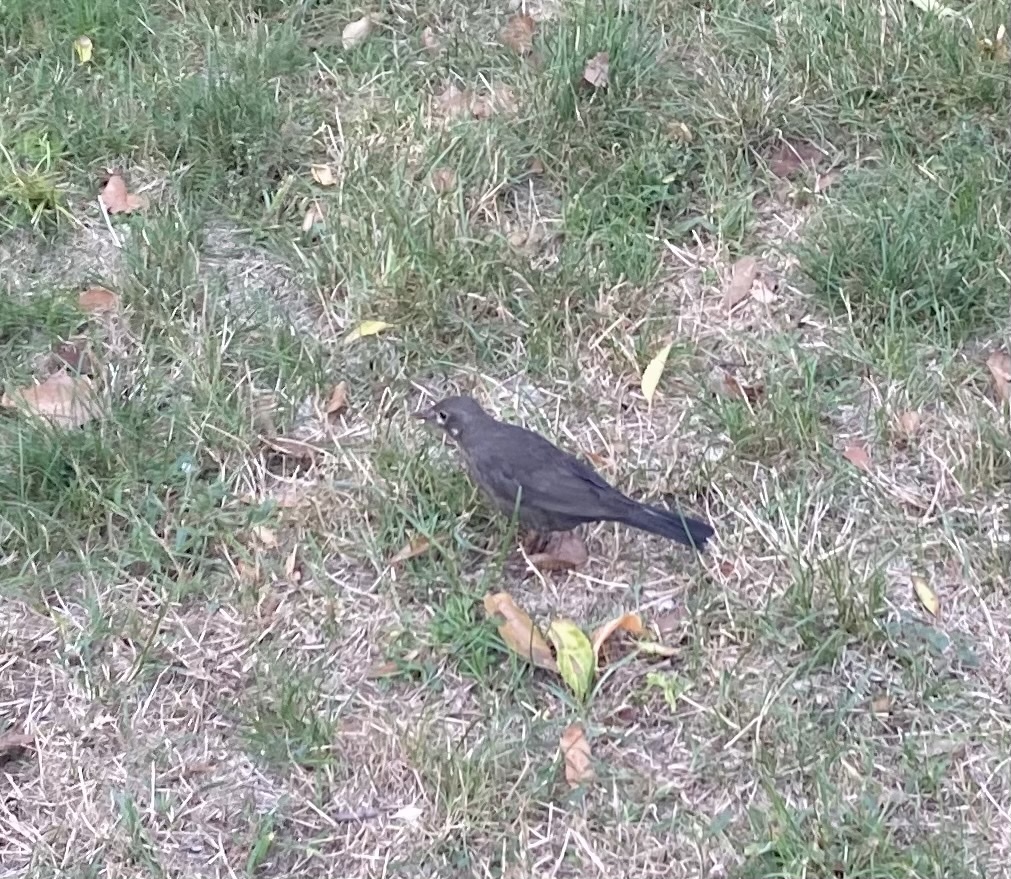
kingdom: Animalia
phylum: Chordata
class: Aves
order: Passeriformes
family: Turdidae
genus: Turdus
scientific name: Turdus merula
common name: Common blackbird
